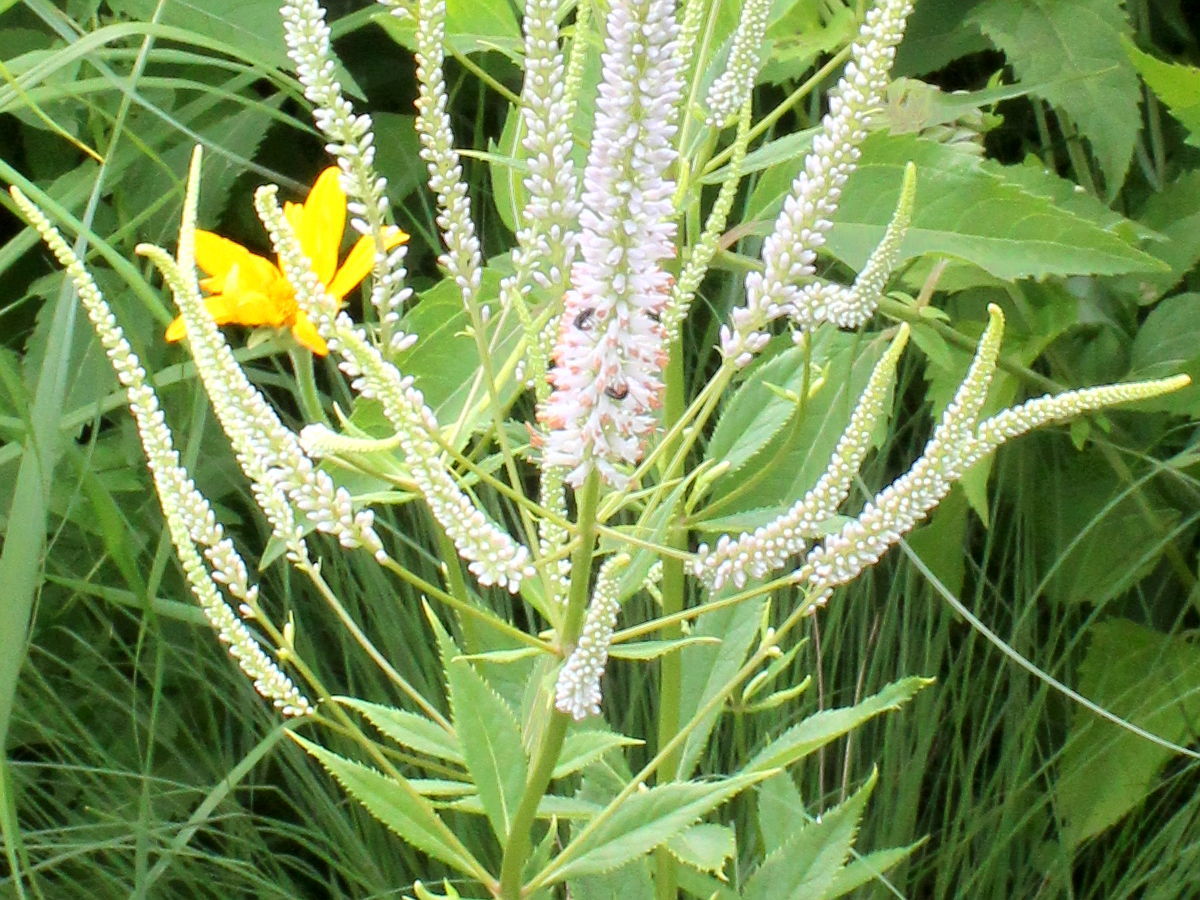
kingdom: Plantae
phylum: Tracheophyta
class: Magnoliopsida
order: Lamiales
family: Plantaginaceae
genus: Veronicastrum
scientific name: Veronicastrum virginicum
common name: Blackroot
